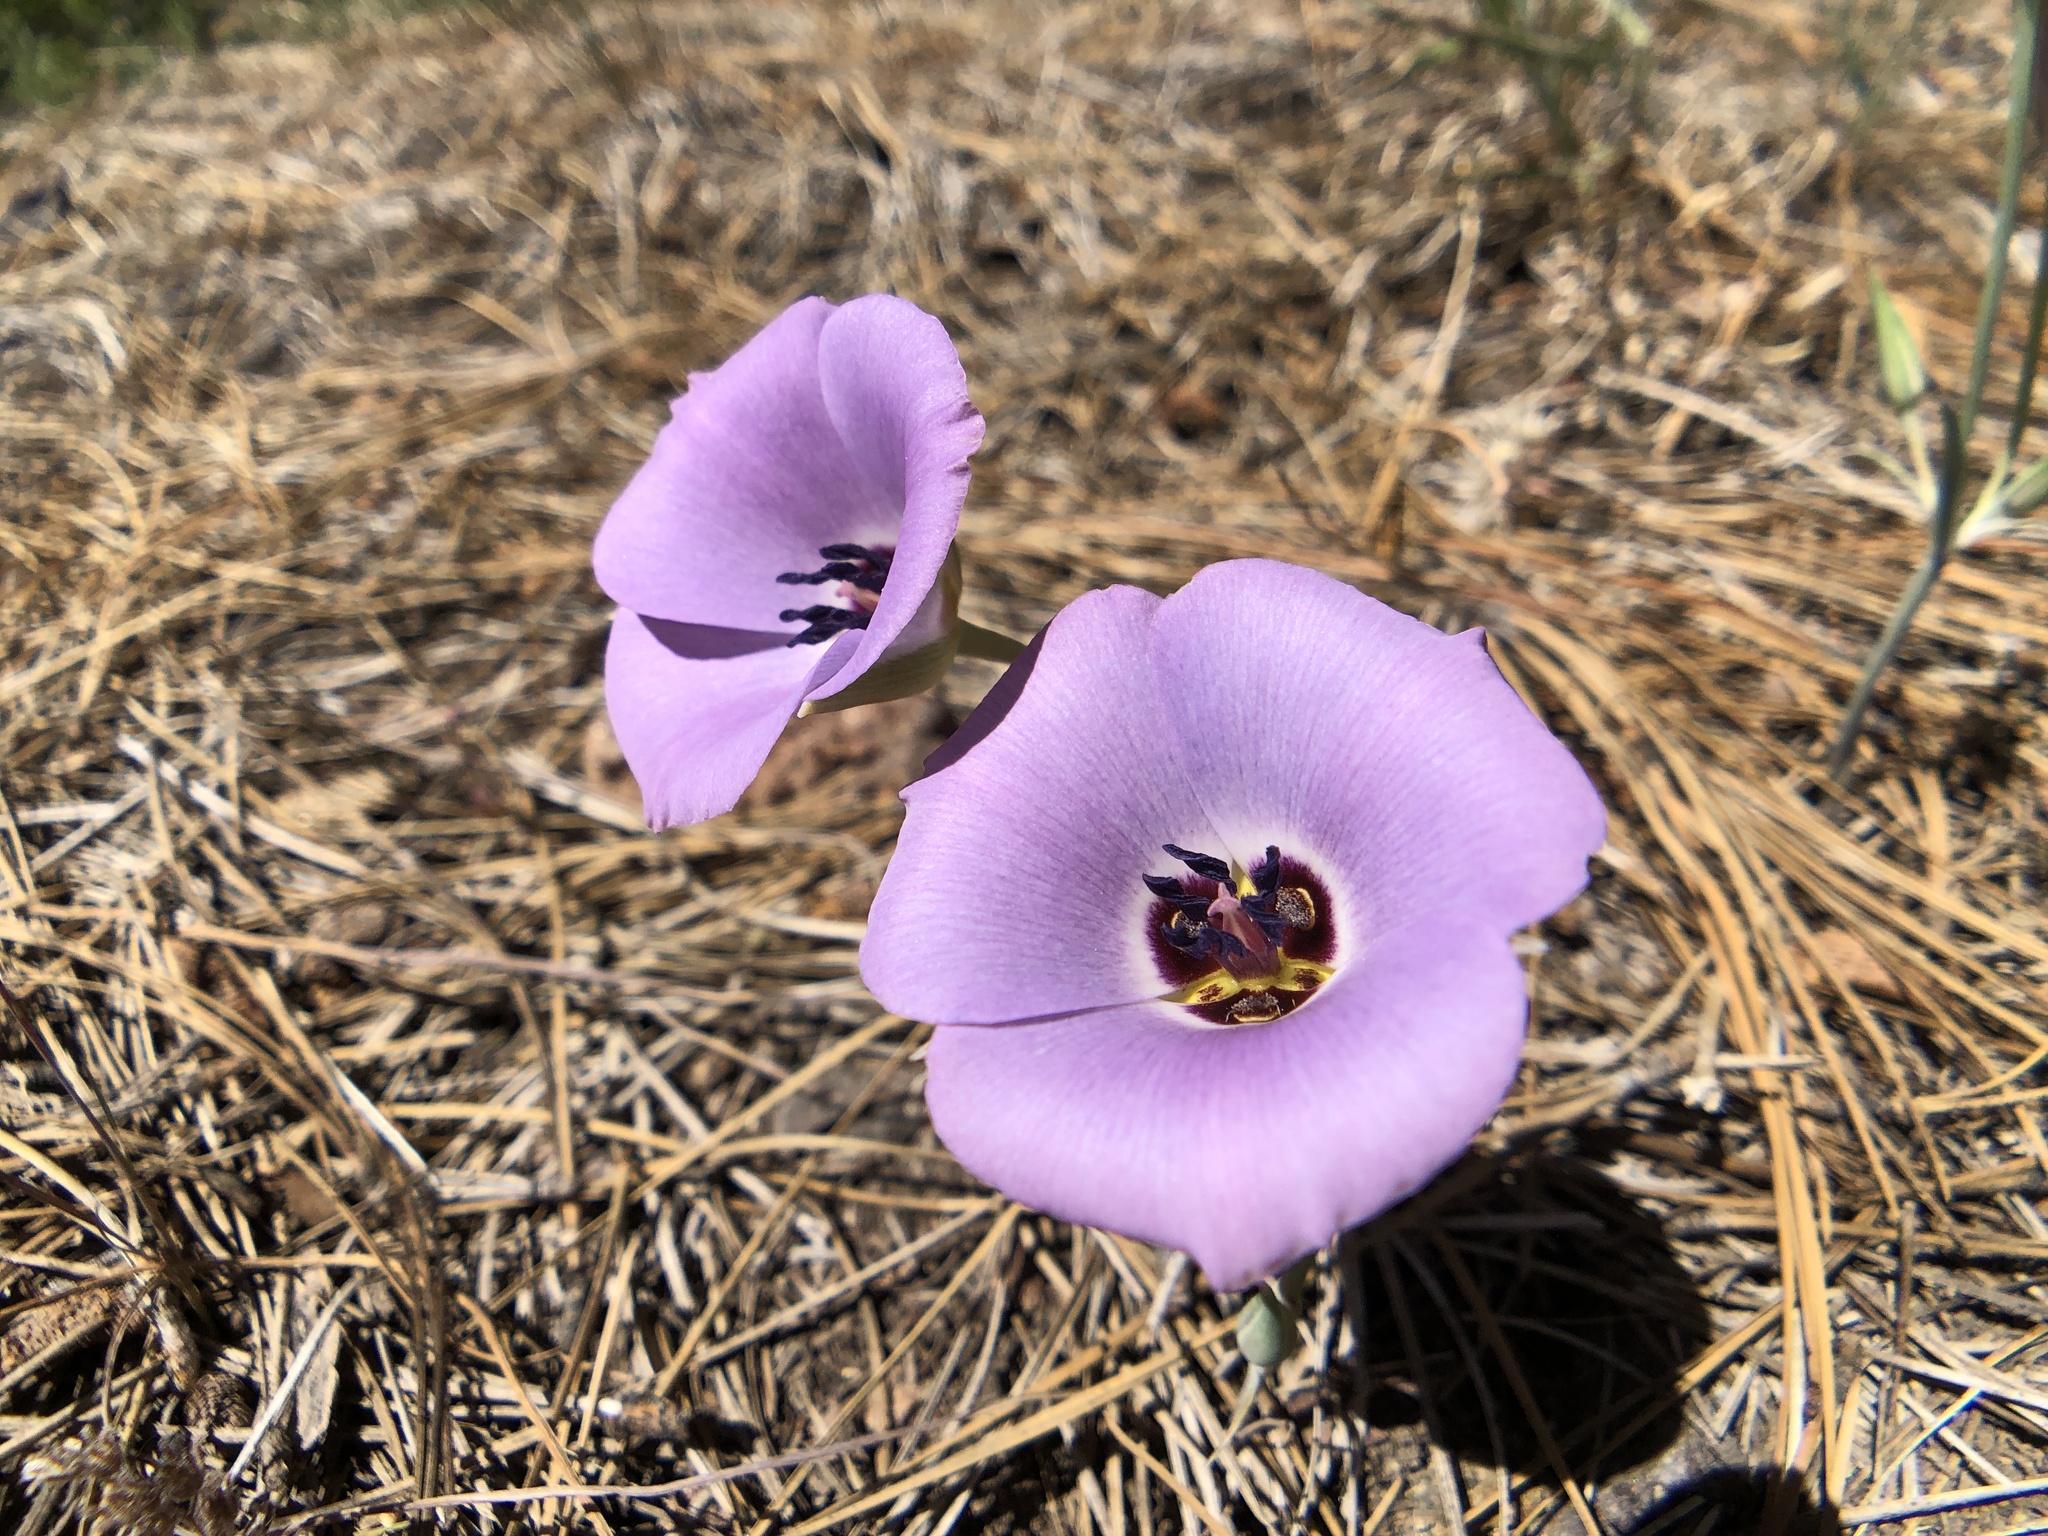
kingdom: Plantae
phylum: Tracheophyta
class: Liliopsida
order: Liliales
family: Liliaceae
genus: Calochortus
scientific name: Calochortus invenustus
